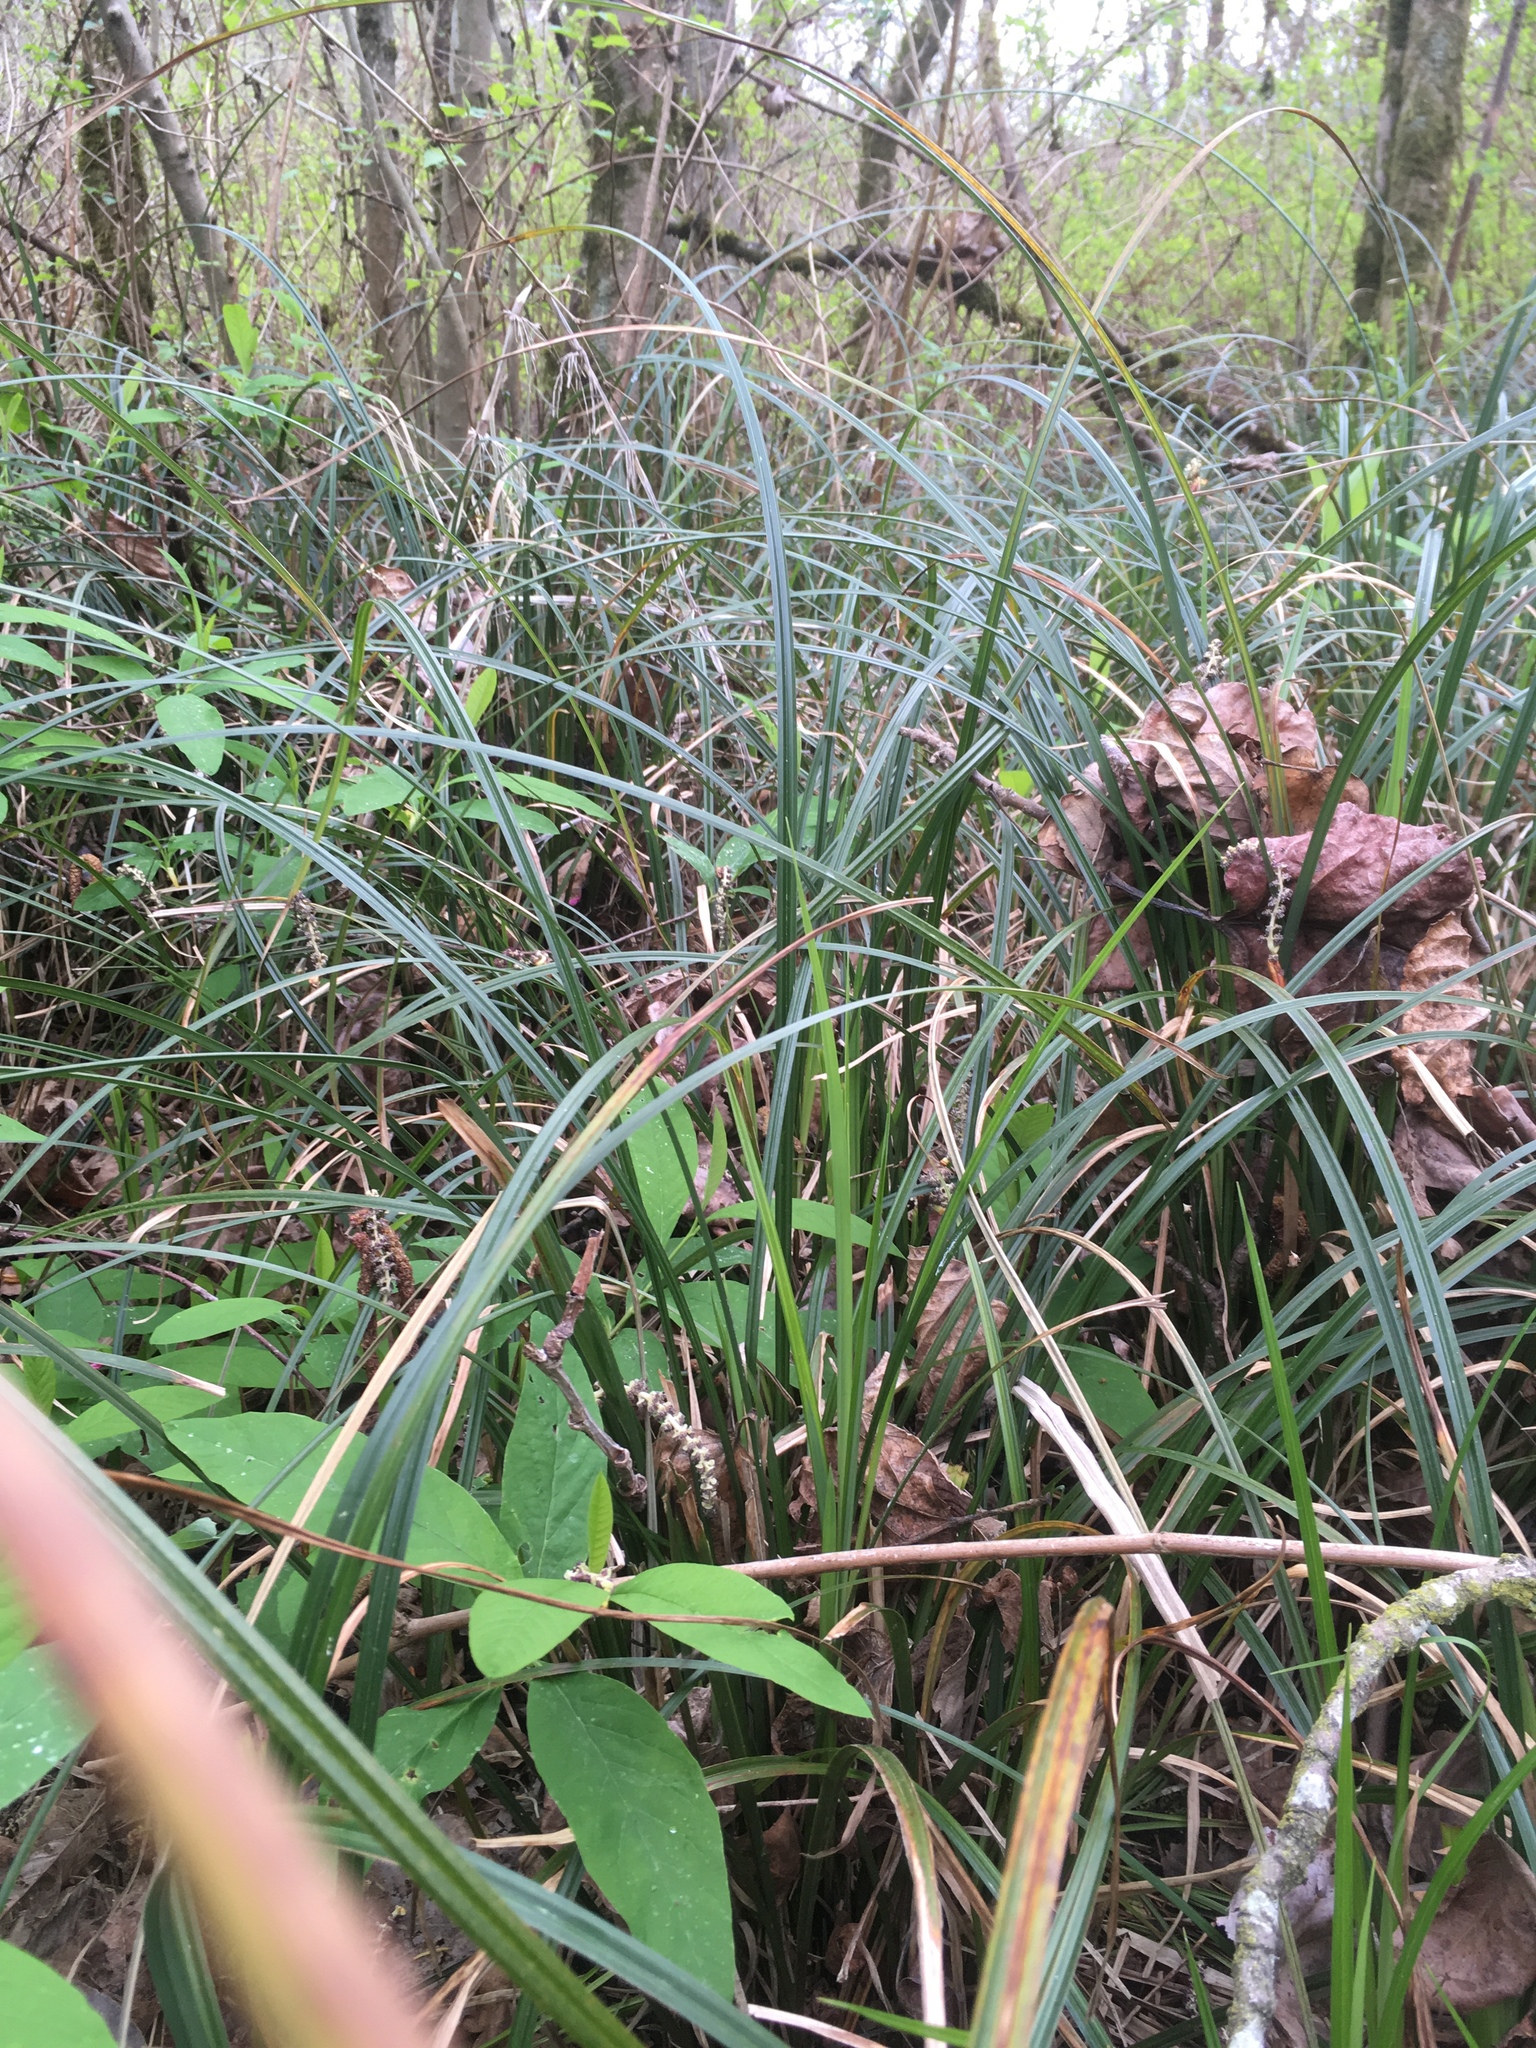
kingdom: Plantae
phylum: Tracheophyta
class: Liliopsida
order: Poales
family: Cyperaceae
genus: Carex
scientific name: Carex obnupta
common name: Slough sedge
